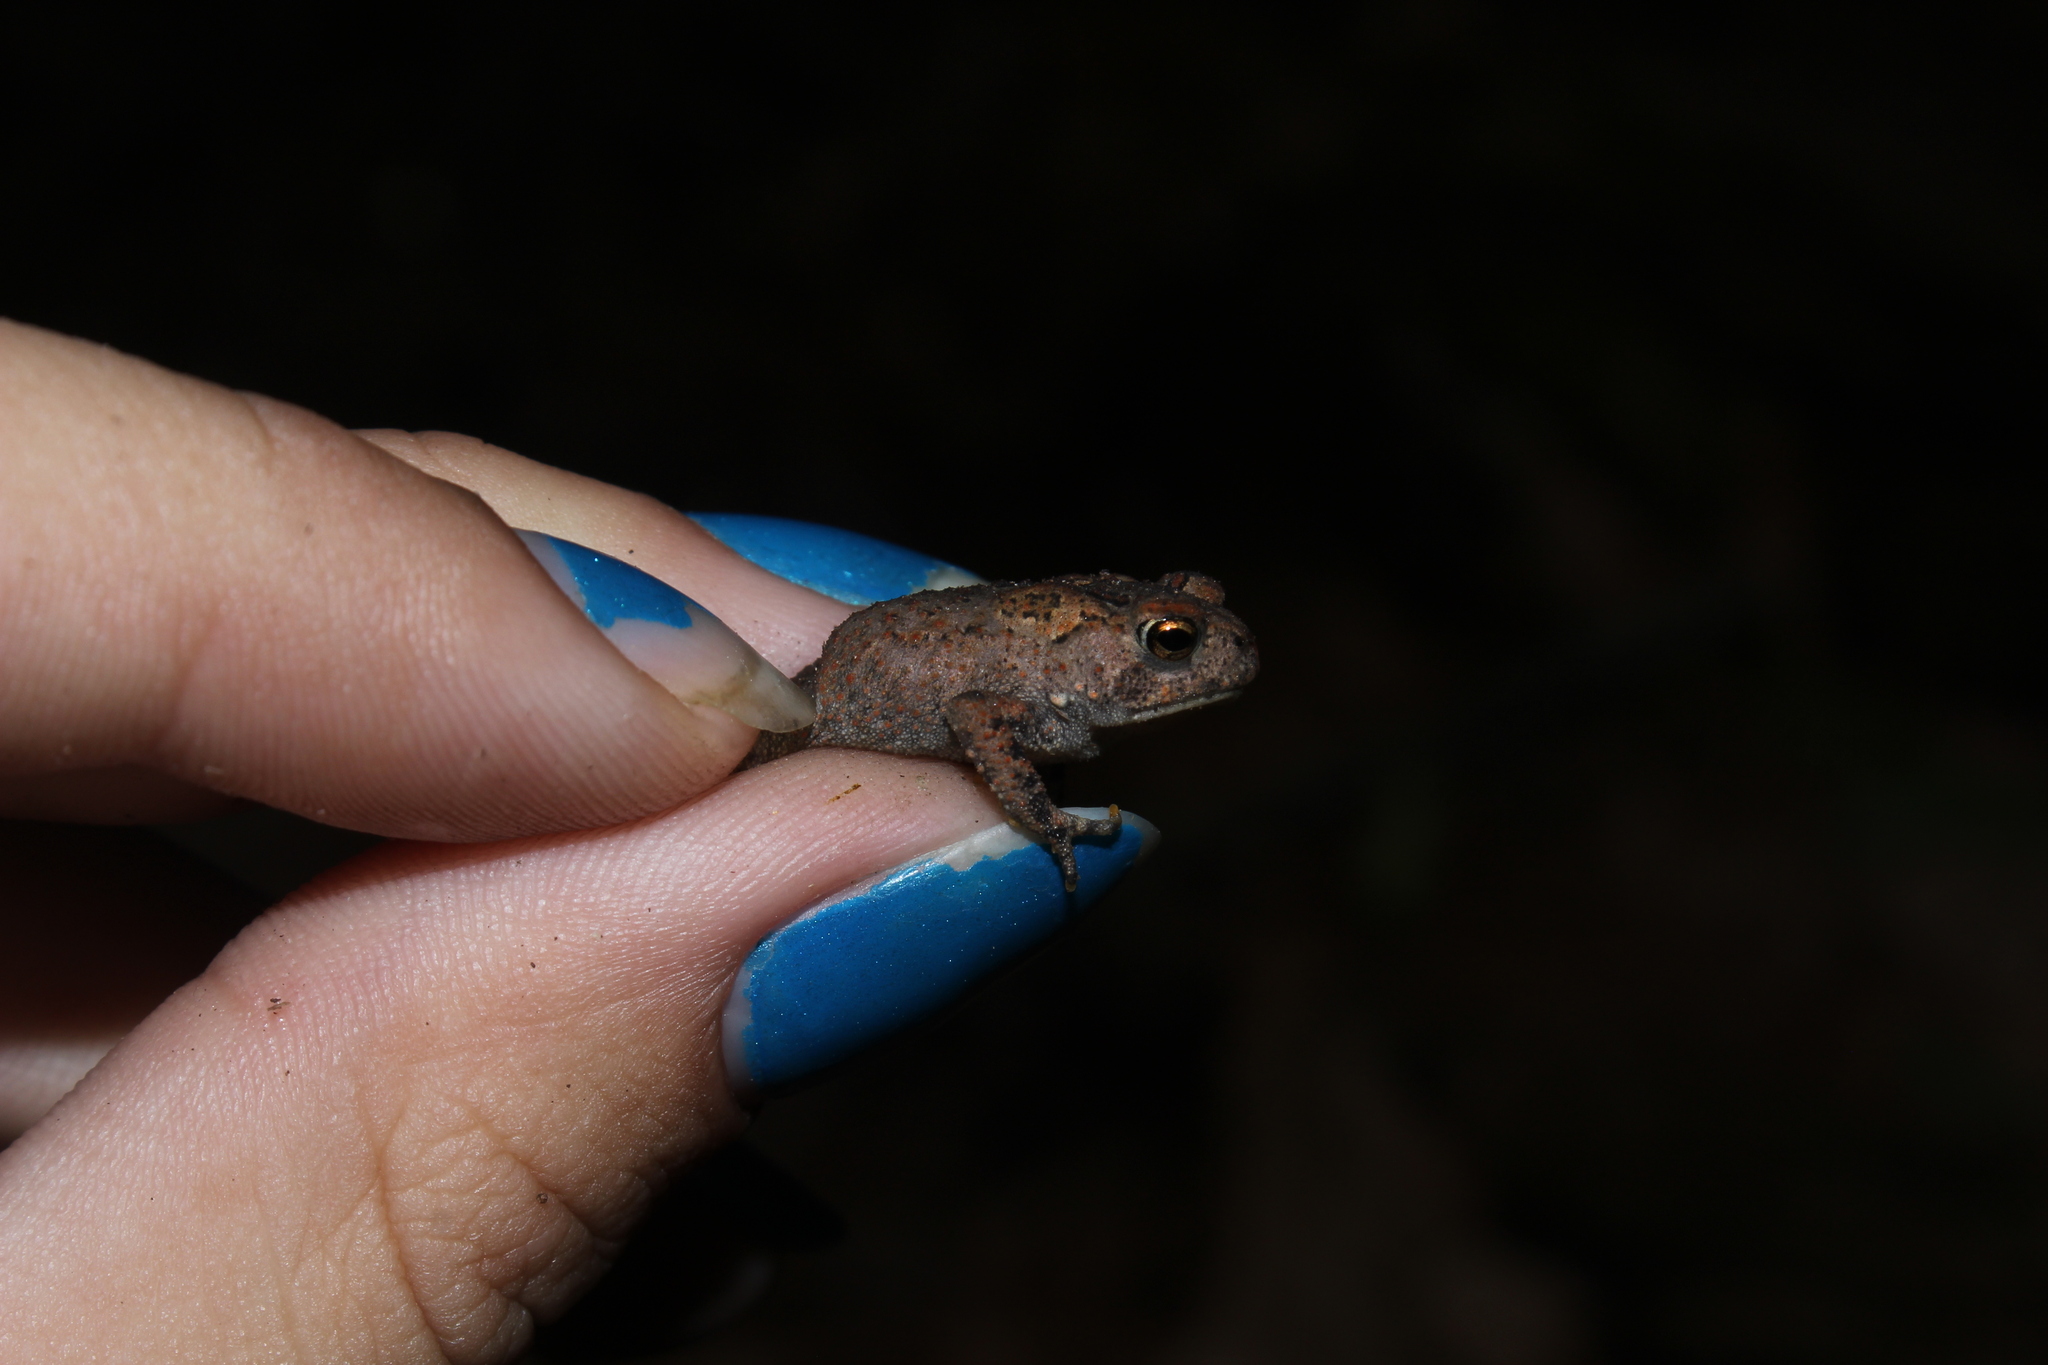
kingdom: Animalia
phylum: Chordata
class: Amphibia
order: Anura
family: Bufonidae
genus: Anaxyrus
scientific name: Anaxyrus americanus
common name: American toad
